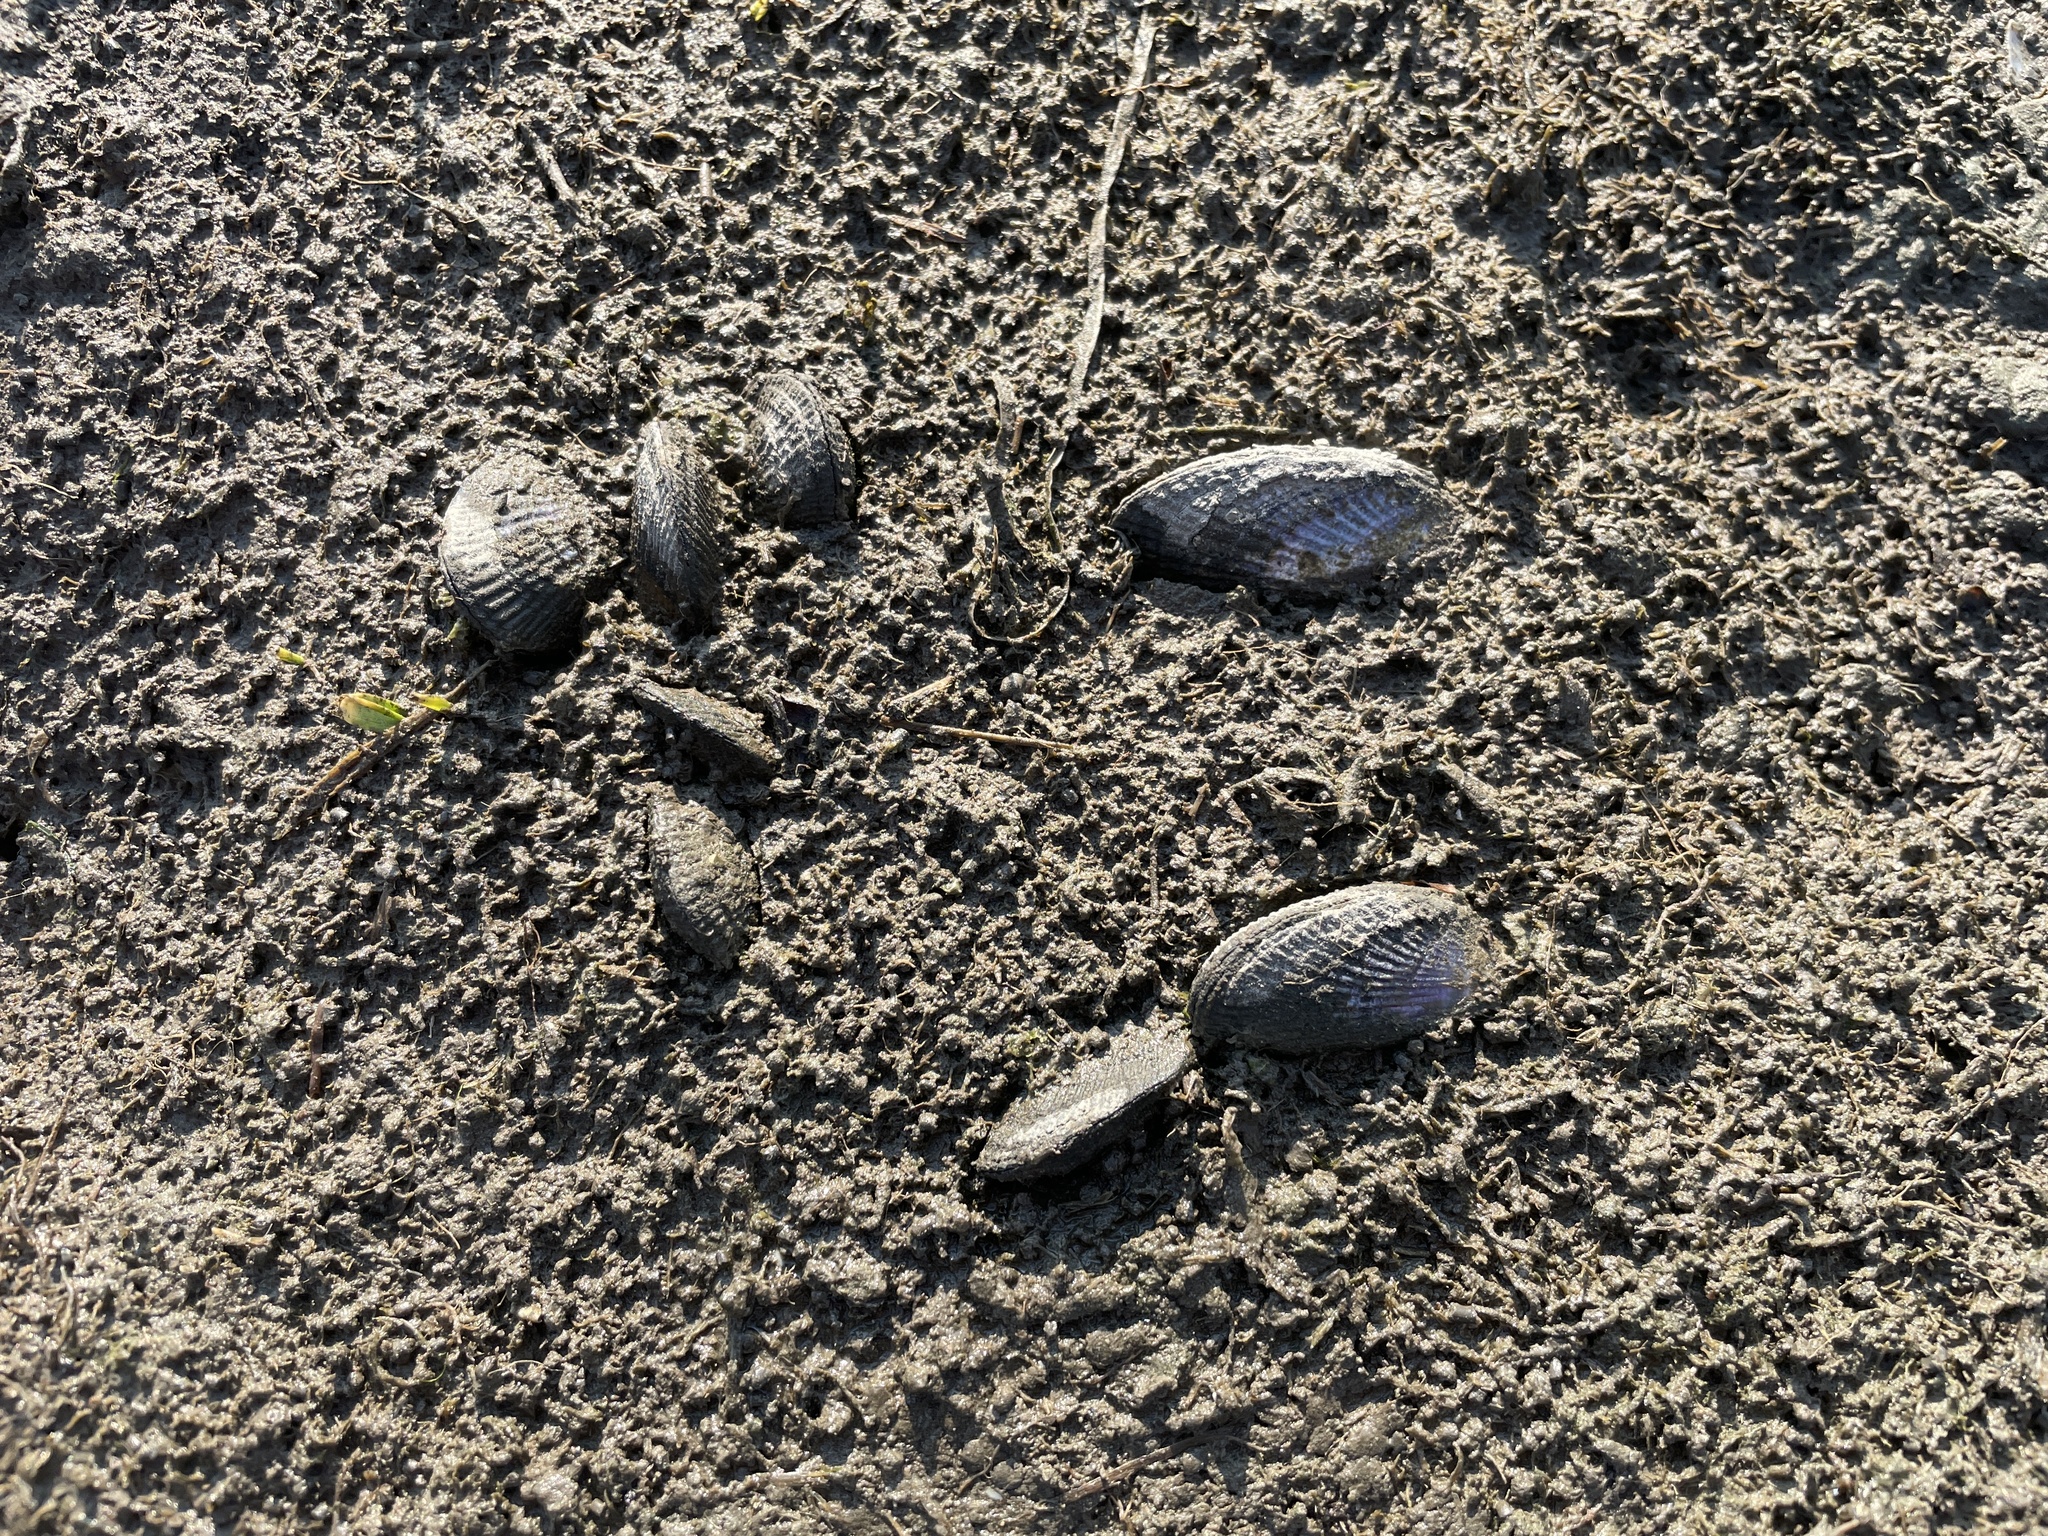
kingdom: Animalia
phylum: Mollusca
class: Bivalvia
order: Mytilida
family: Mytilidae
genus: Geukensia
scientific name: Geukensia demissa
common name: Ribbed mussel
